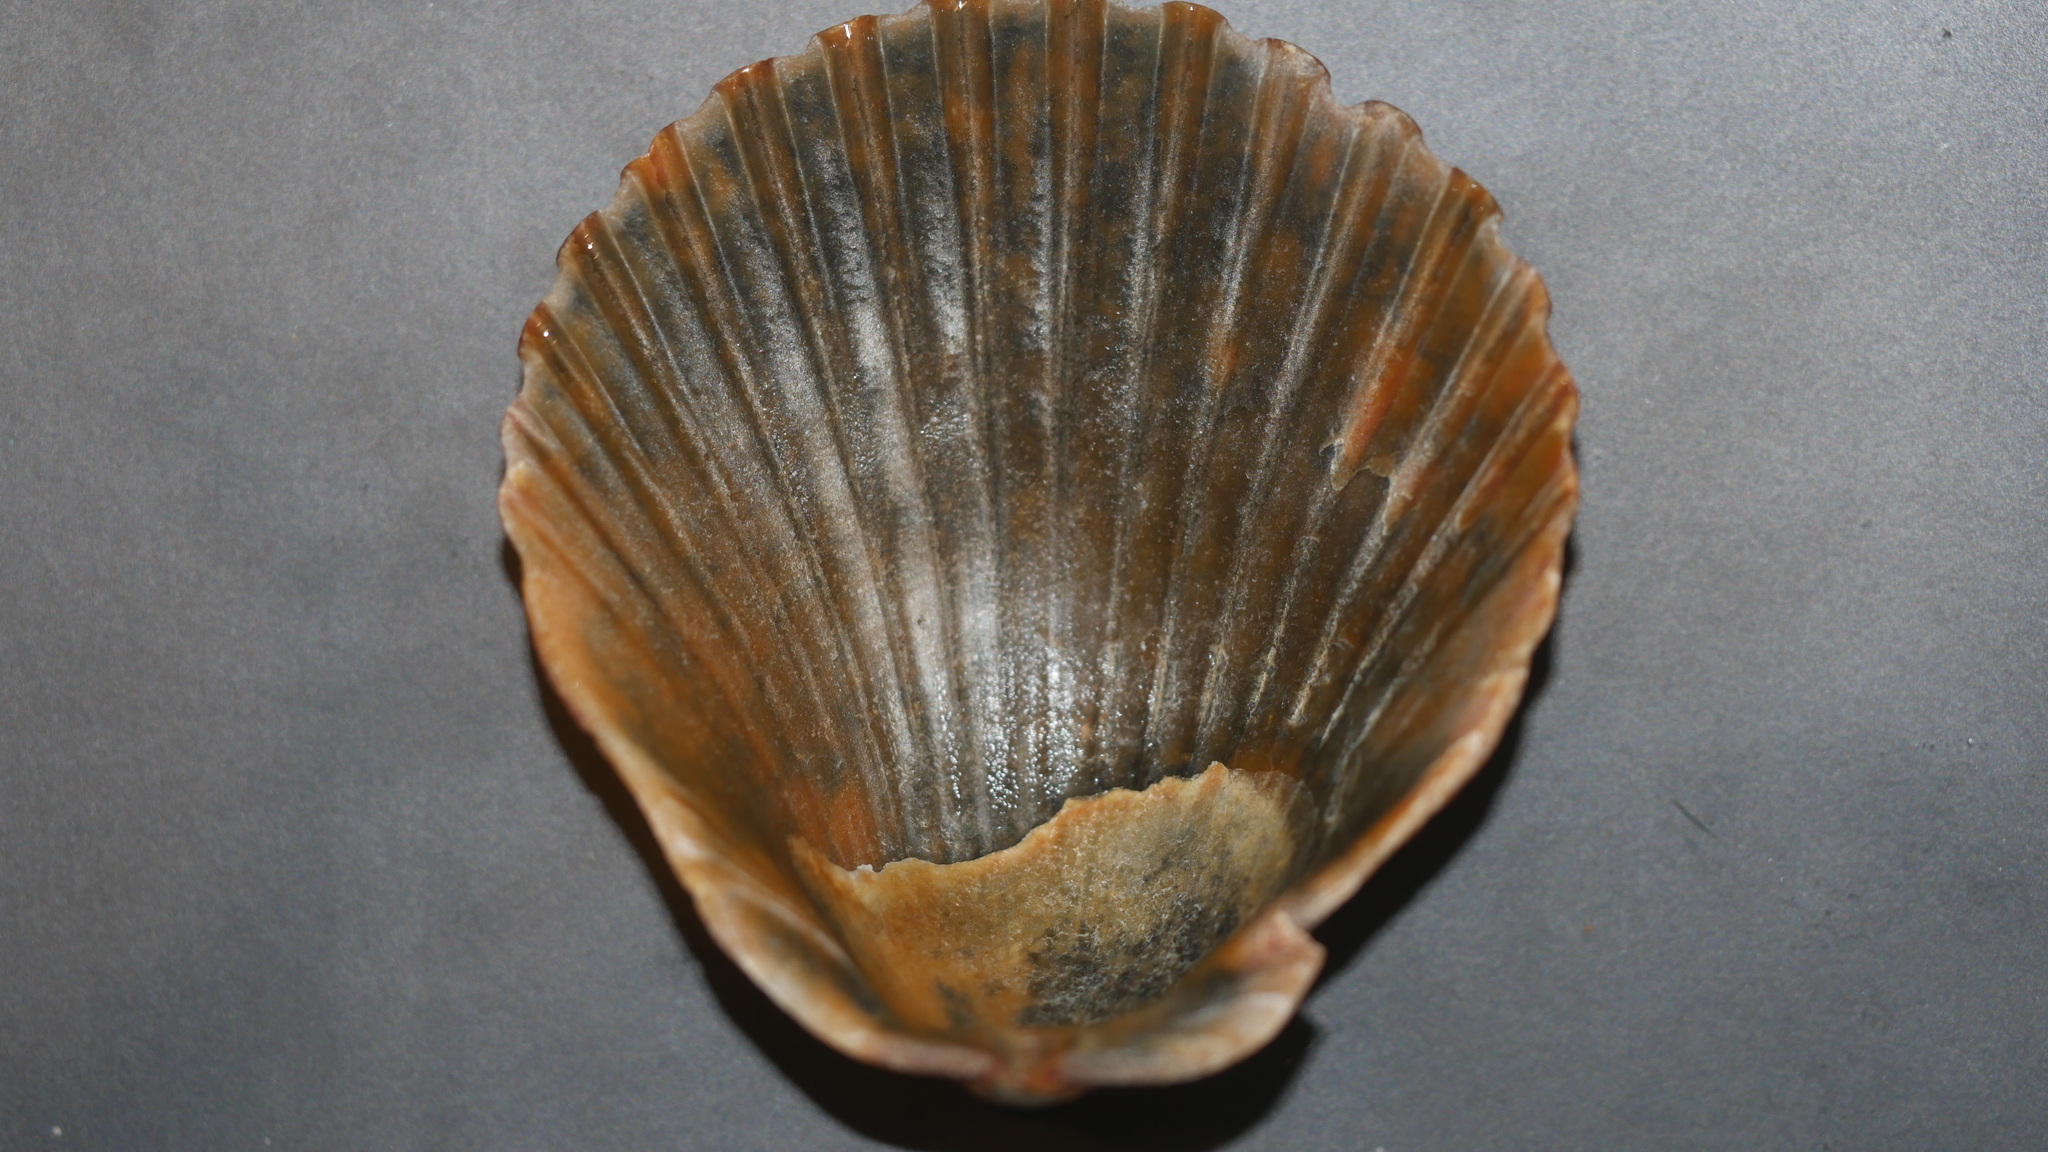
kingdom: Animalia
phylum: Mollusca
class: Bivalvia
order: Pectinida
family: Pectinidae
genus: Argopecten
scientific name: Argopecten irradians
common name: Atlantic bay scallop
